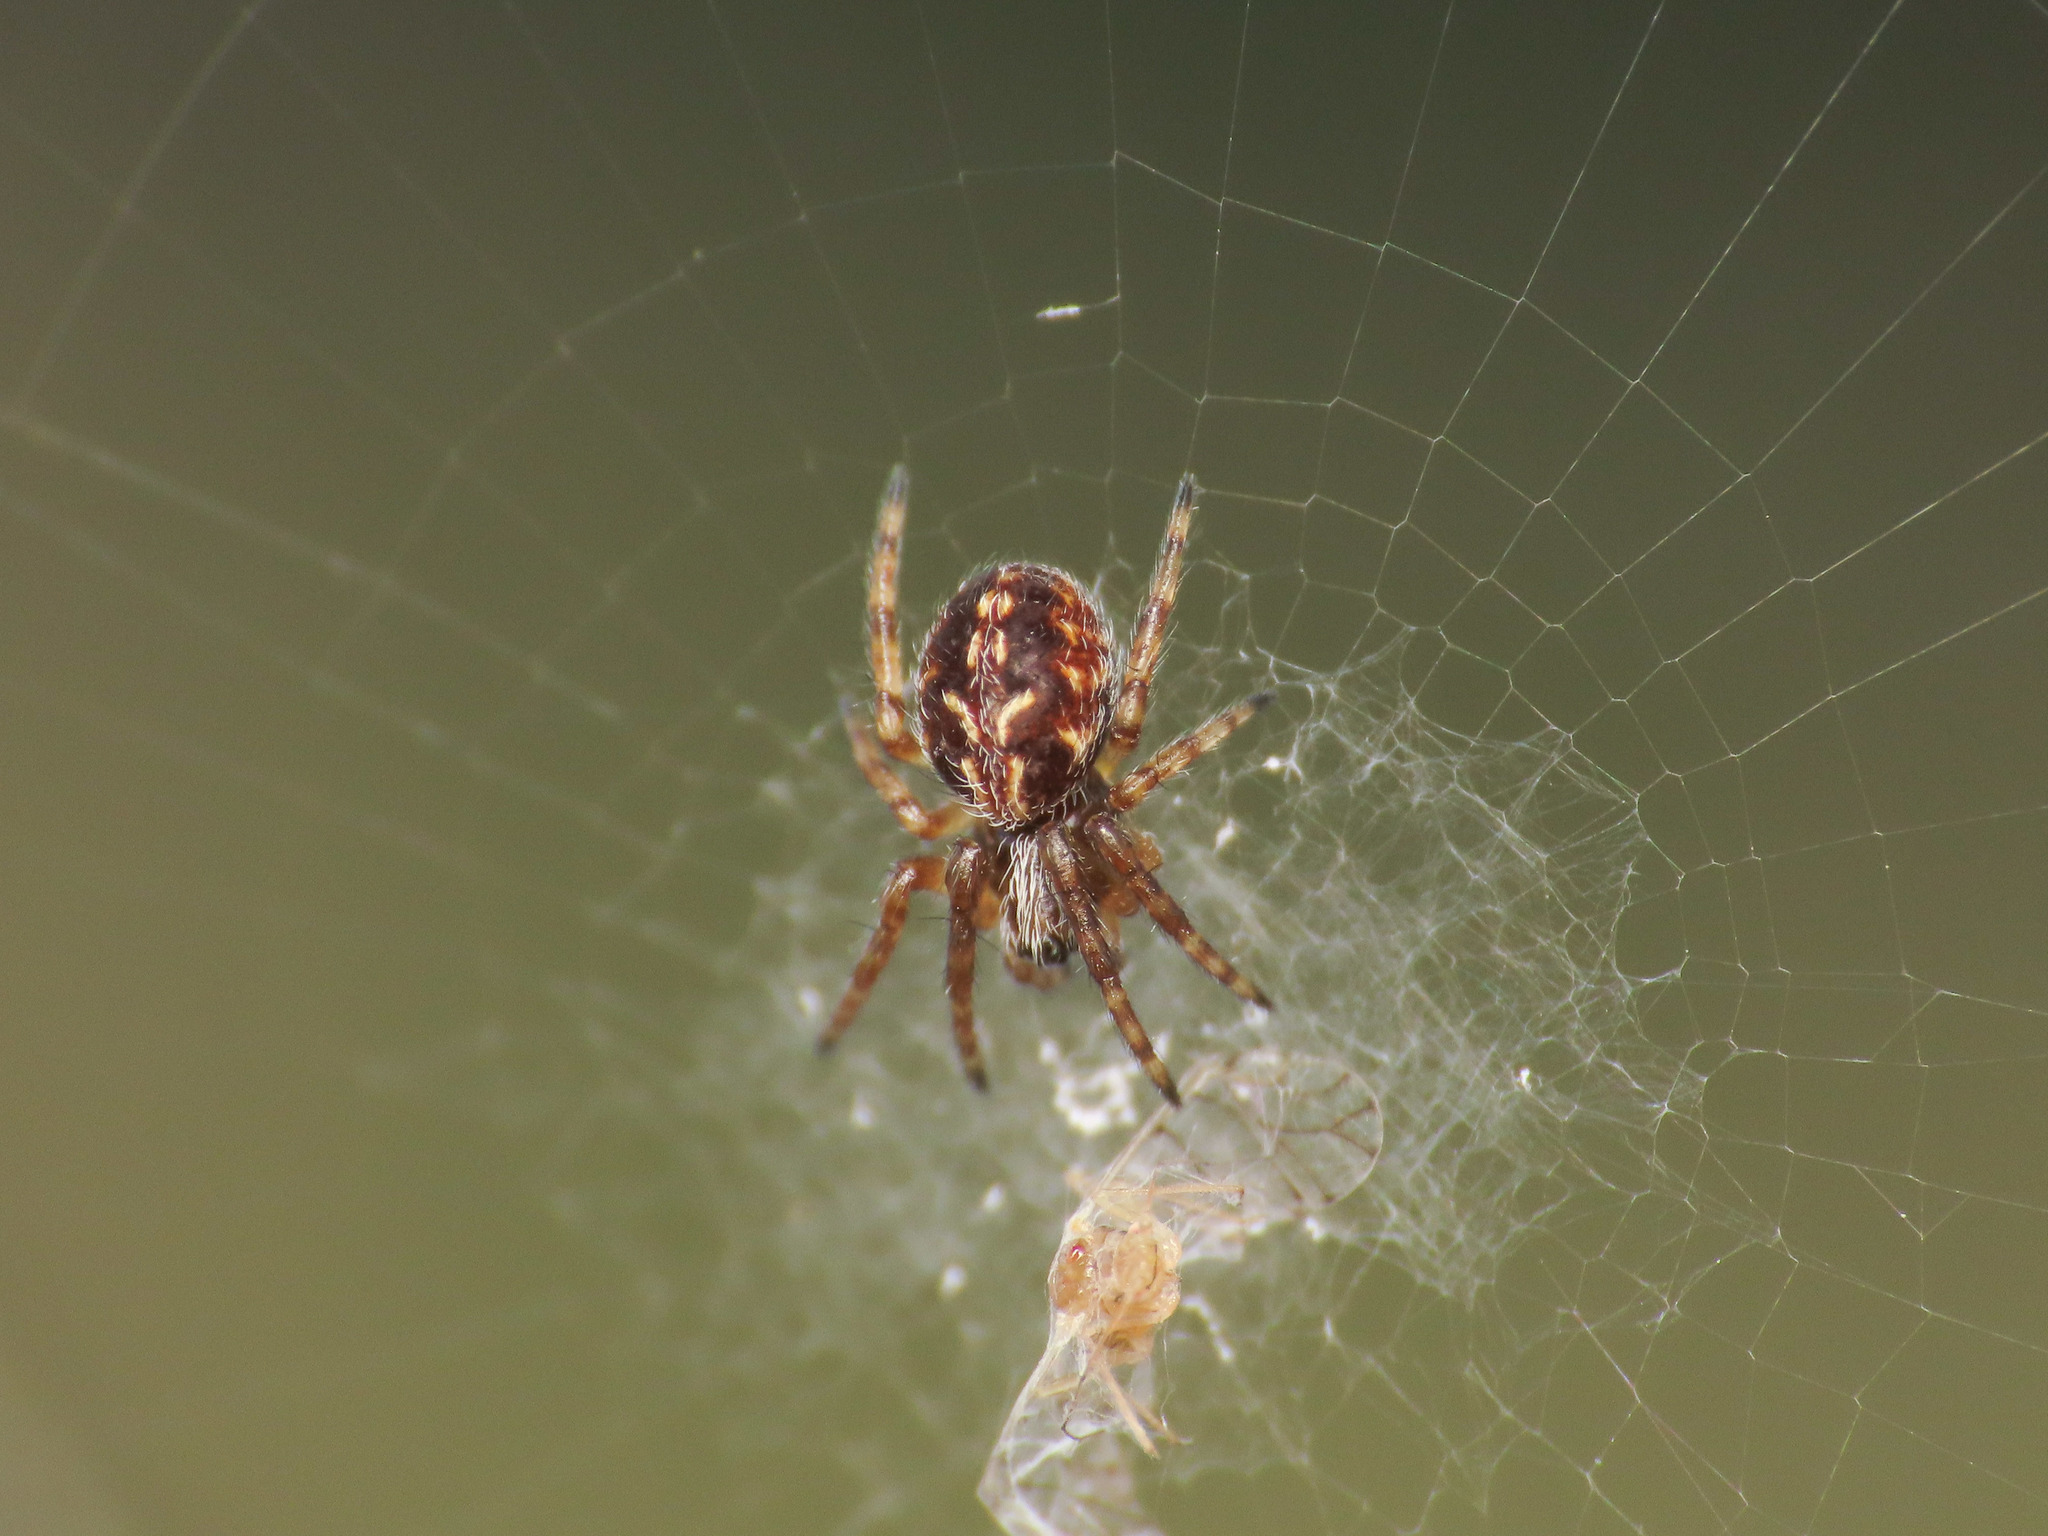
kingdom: Animalia
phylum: Arthropoda
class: Arachnida
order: Araneae
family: Araneidae
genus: Aculepeira
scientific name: Aculepeira ceropegia
